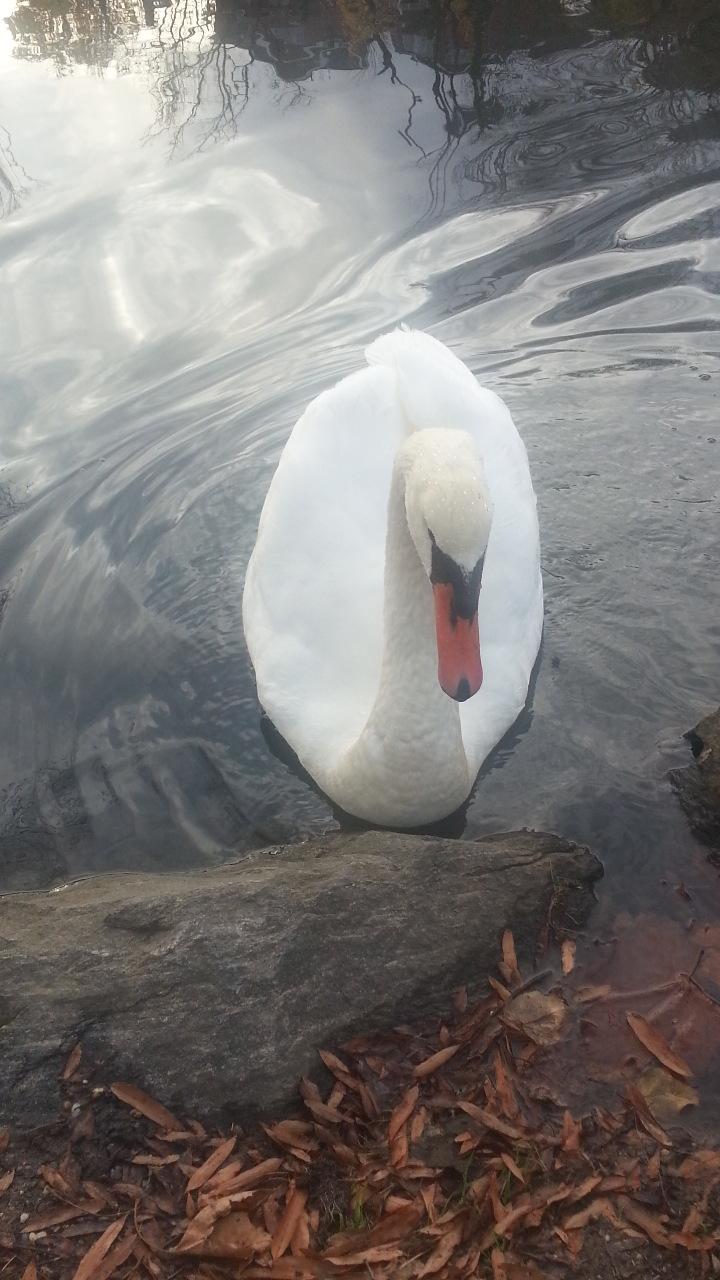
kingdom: Animalia
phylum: Chordata
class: Aves
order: Anseriformes
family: Anatidae
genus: Cygnus
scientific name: Cygnus olor
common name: Mute swan
